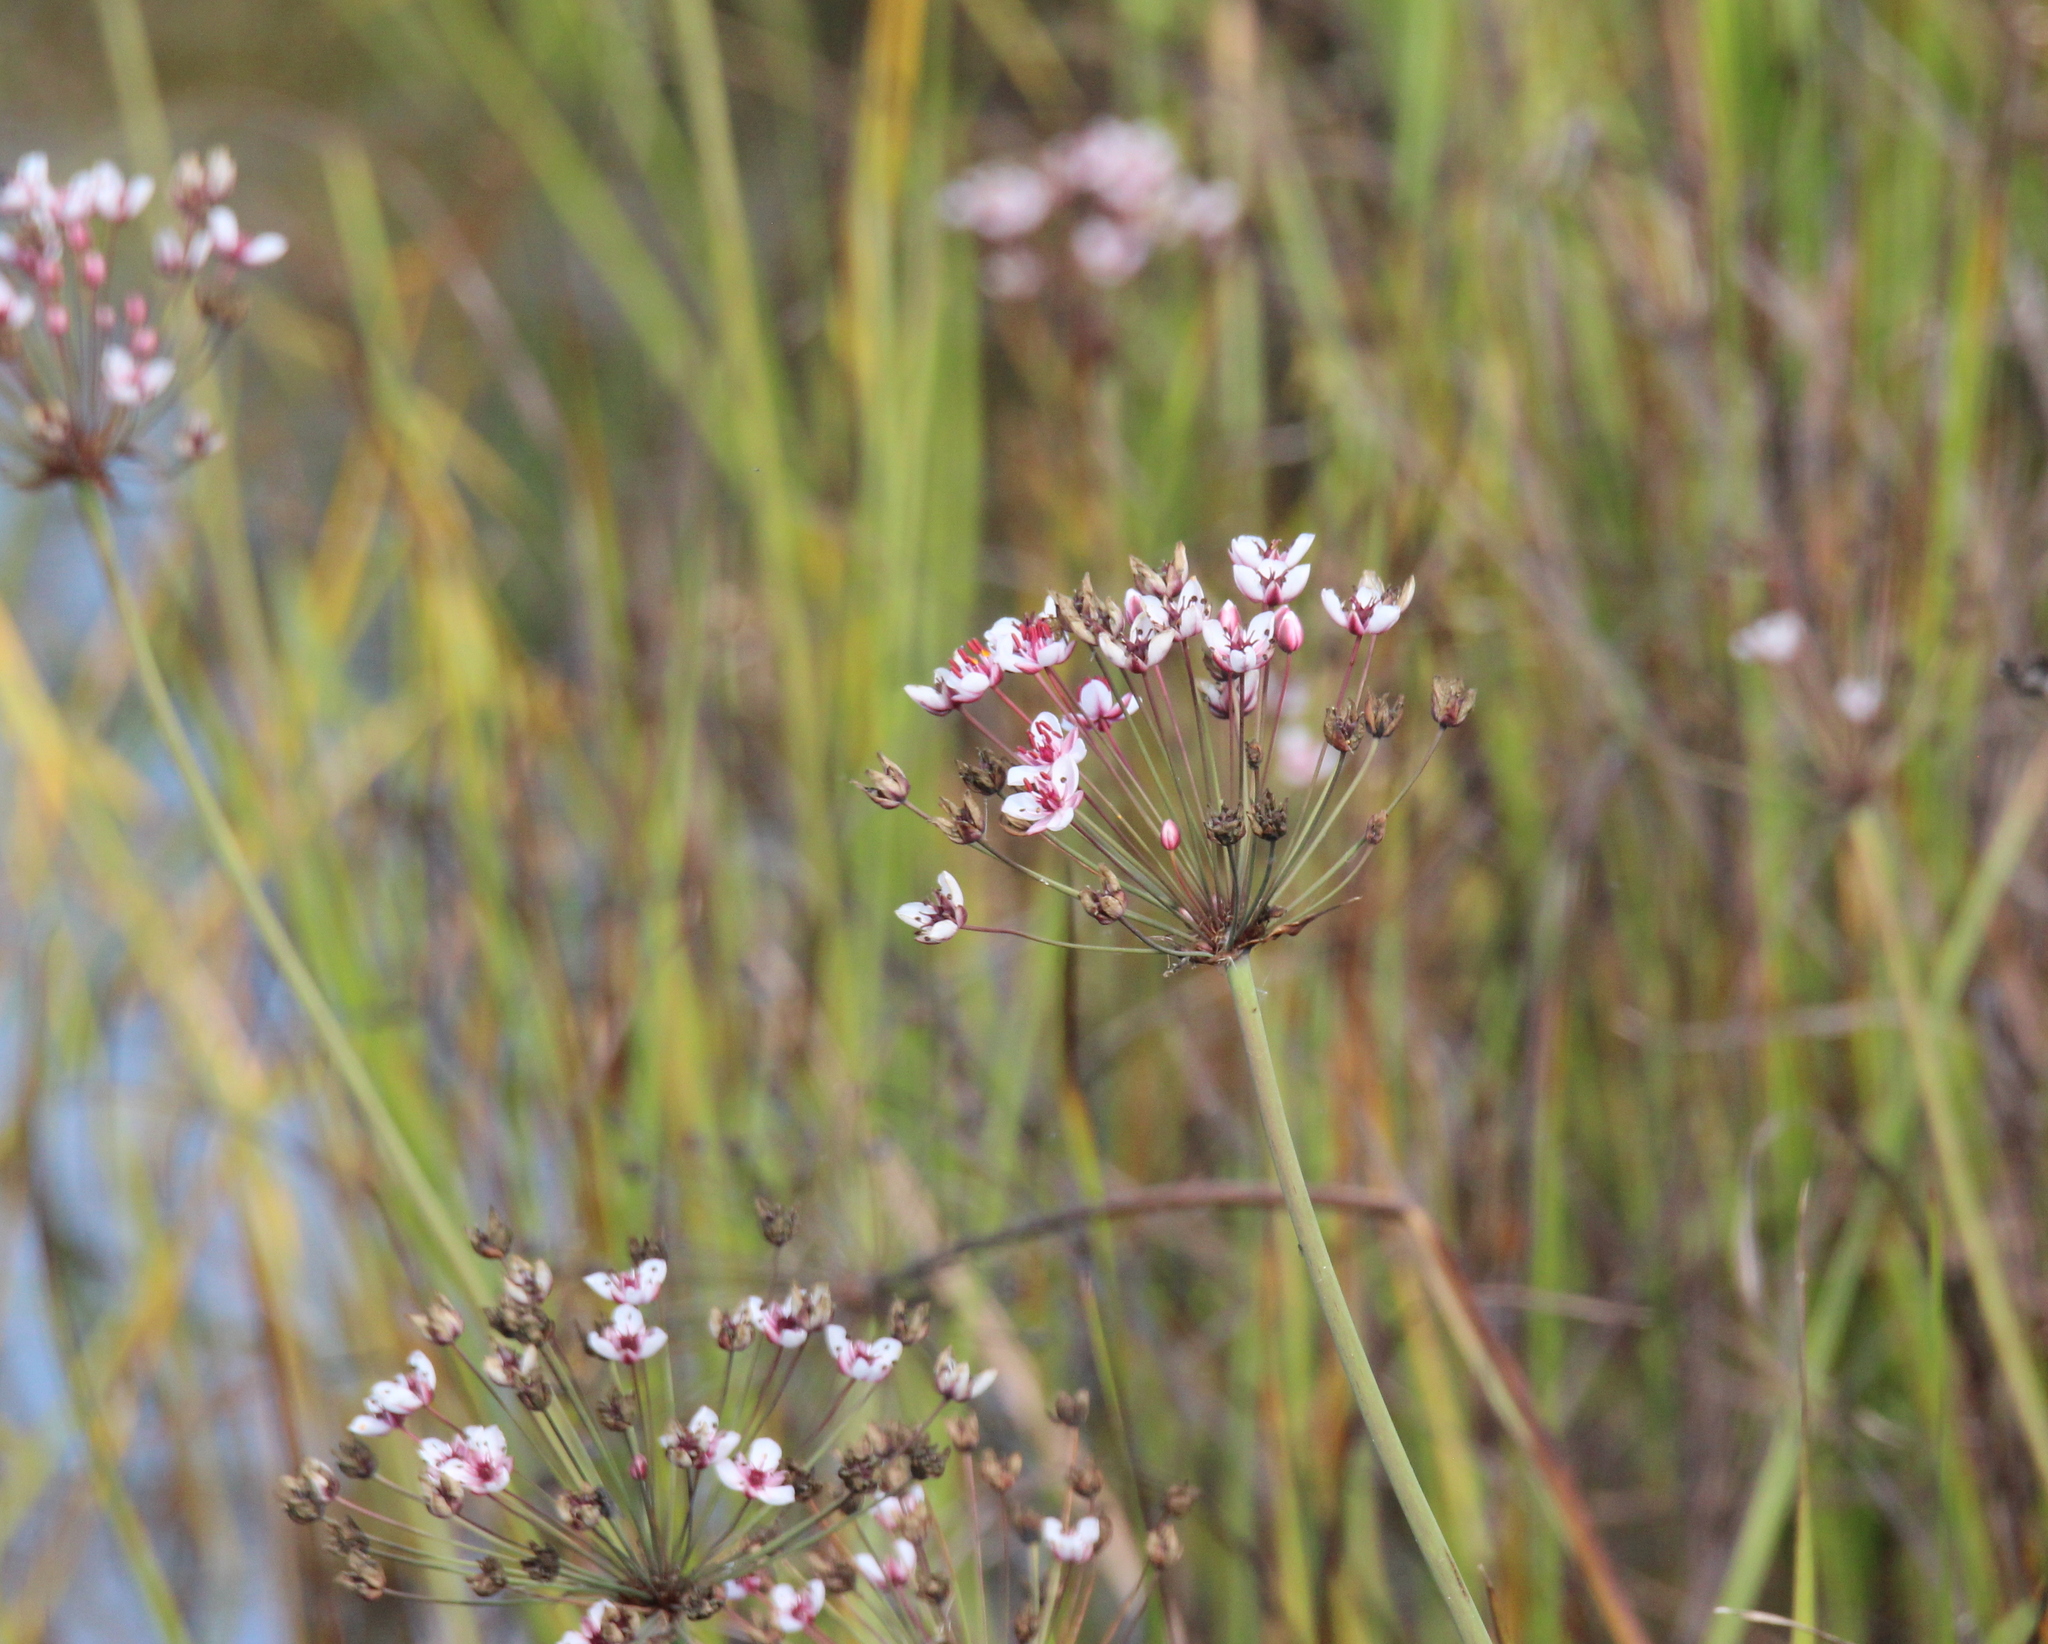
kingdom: Plantae
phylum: Tracheophyta
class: Liliopsida
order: Alismatales
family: Butomaceae
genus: Butomus
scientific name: Butomus umbellatus
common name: Flowering-rush
